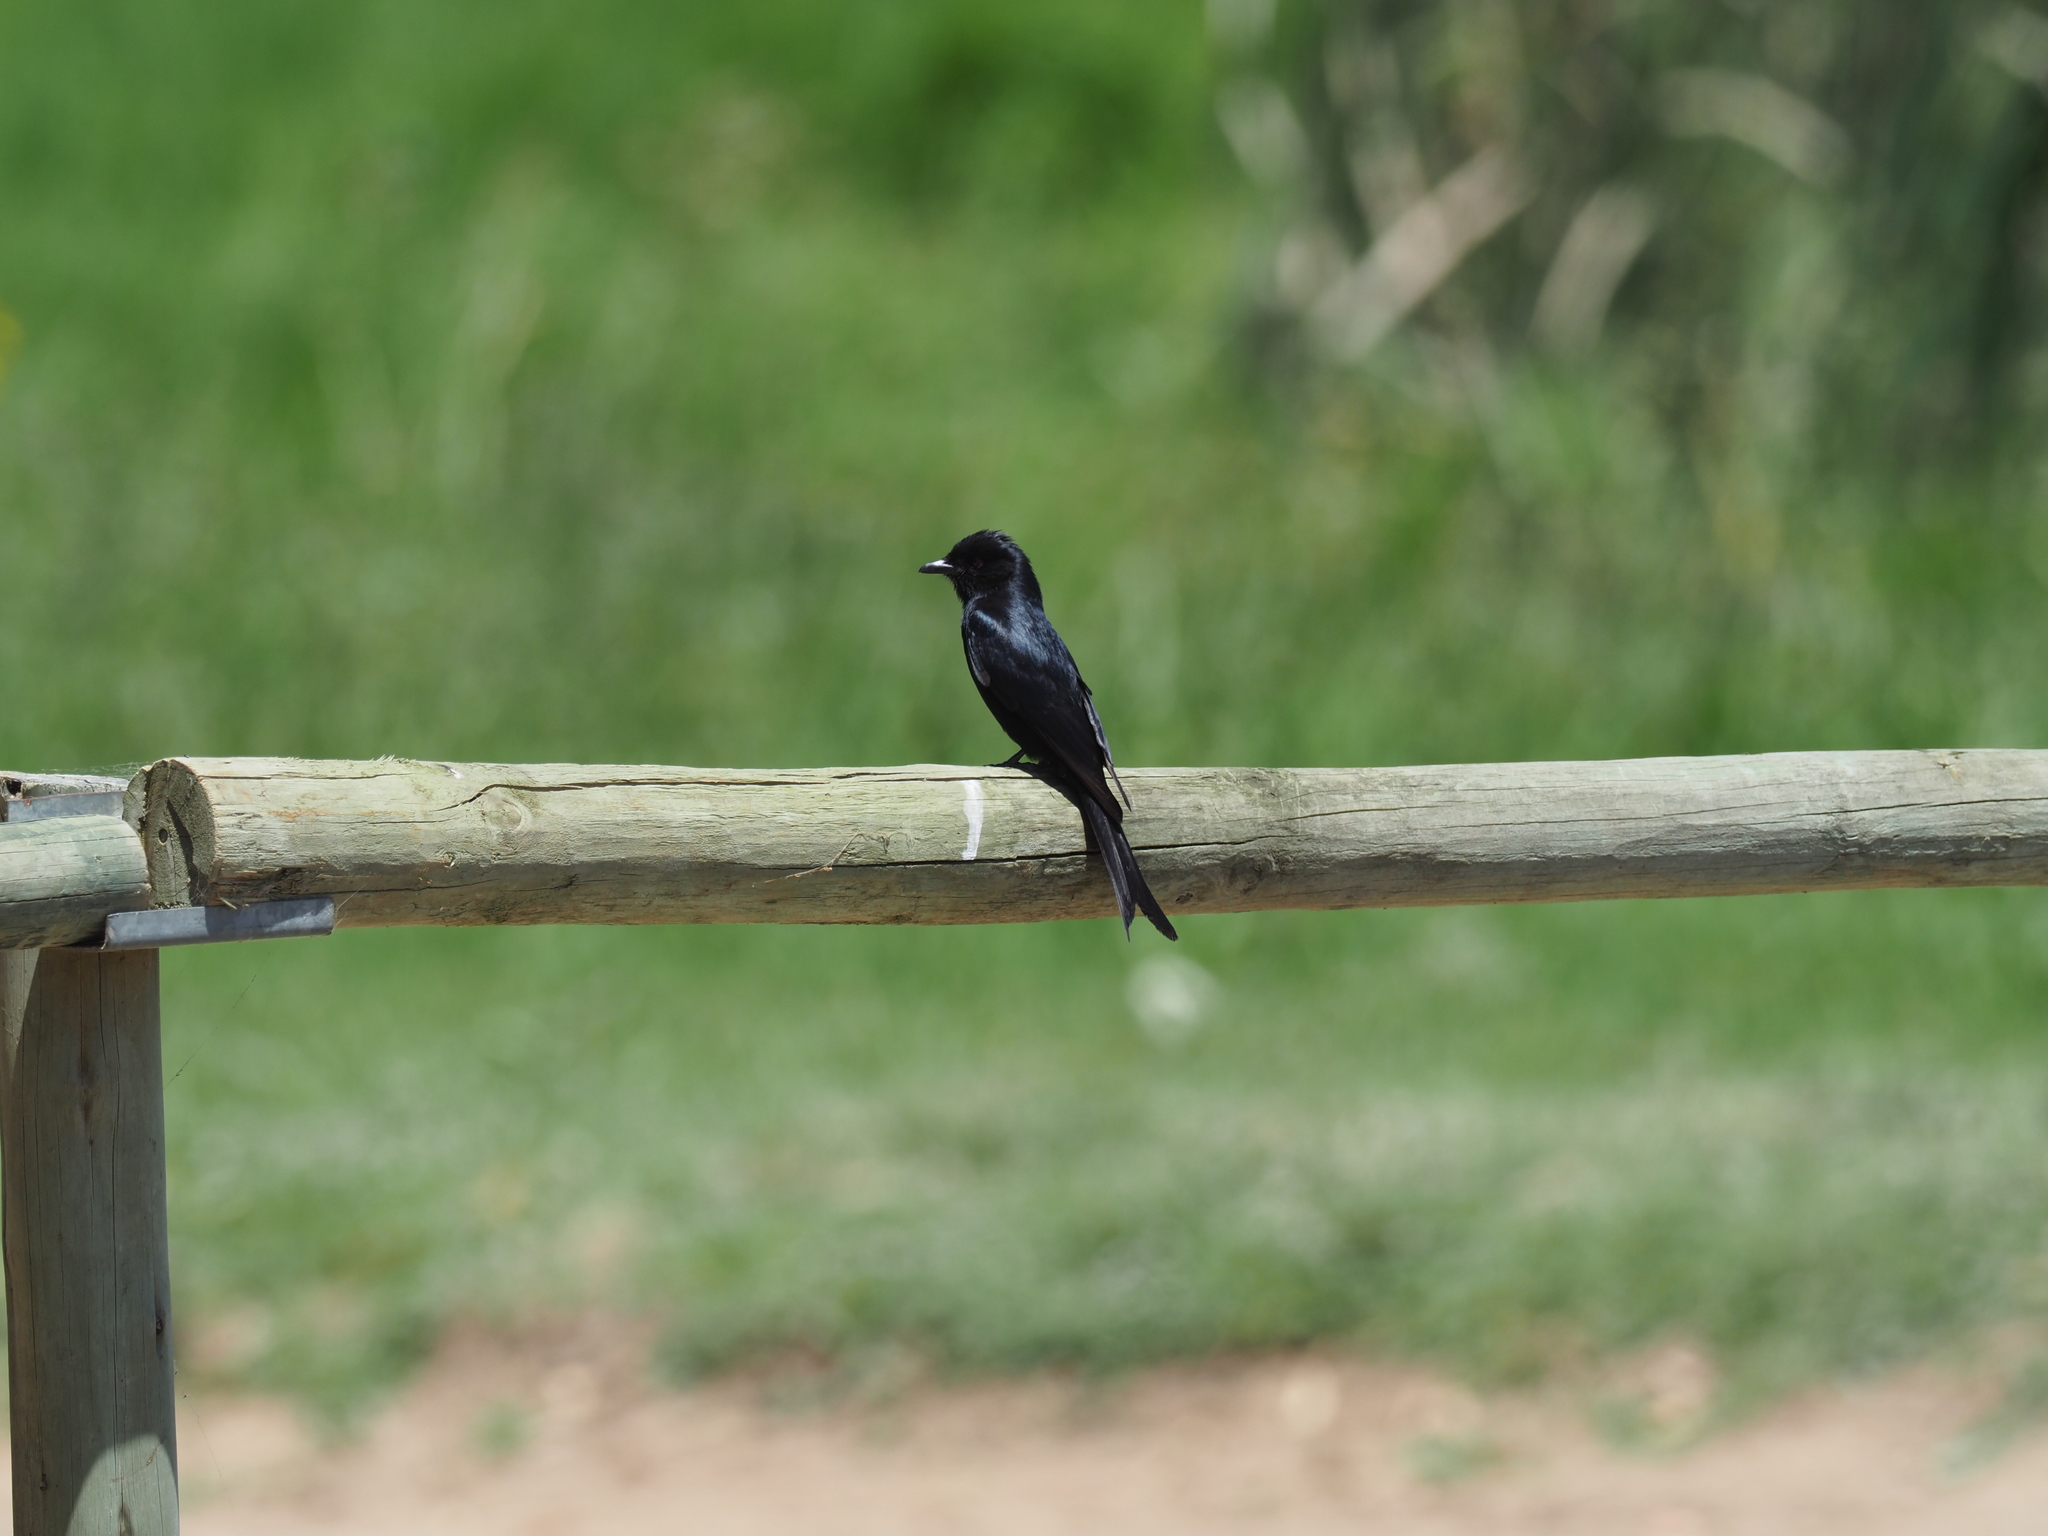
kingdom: Animalia
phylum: Chordata
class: Aves
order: Passeriformes
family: Dicruridae
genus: Dicrurus
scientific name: Dicrurus adsimilis
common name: Fork-tailed drongo
